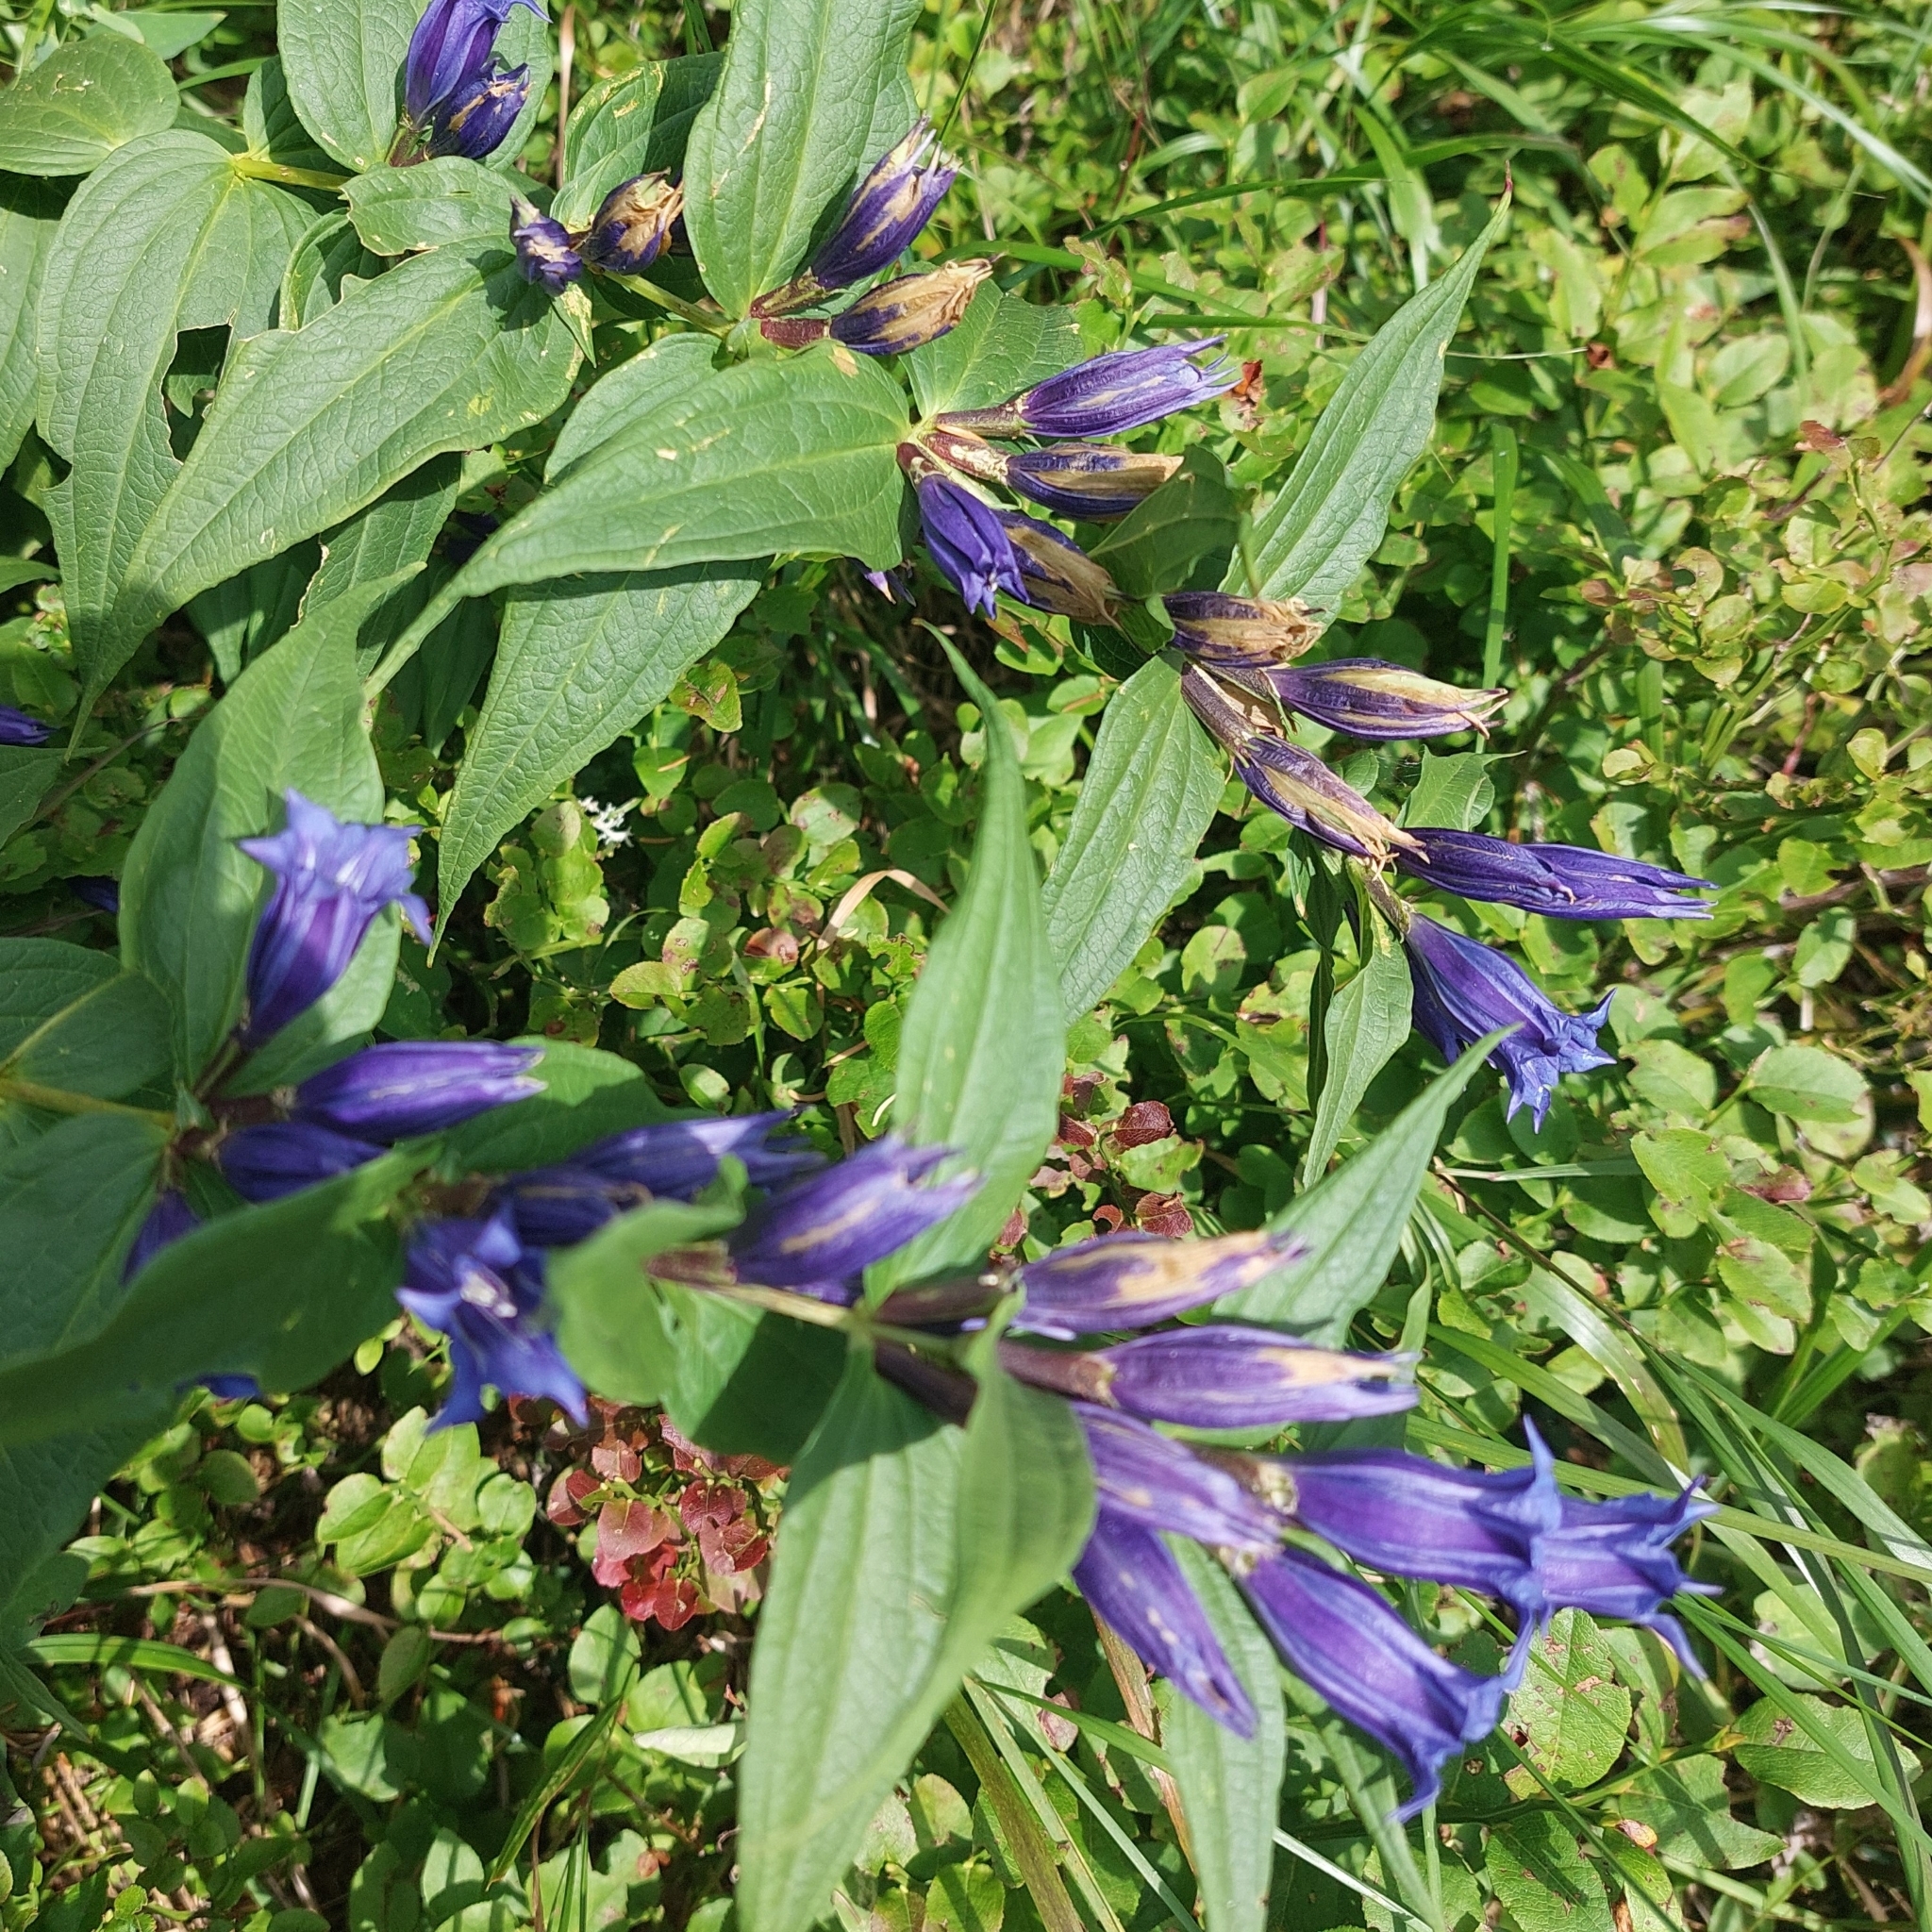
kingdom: Plantae
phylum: Tracheophyta
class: Magnoliopsida
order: Gentianales
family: Gentianaceae
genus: Gentiana
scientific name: Gentiana asclepiadea
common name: Willow gentian
